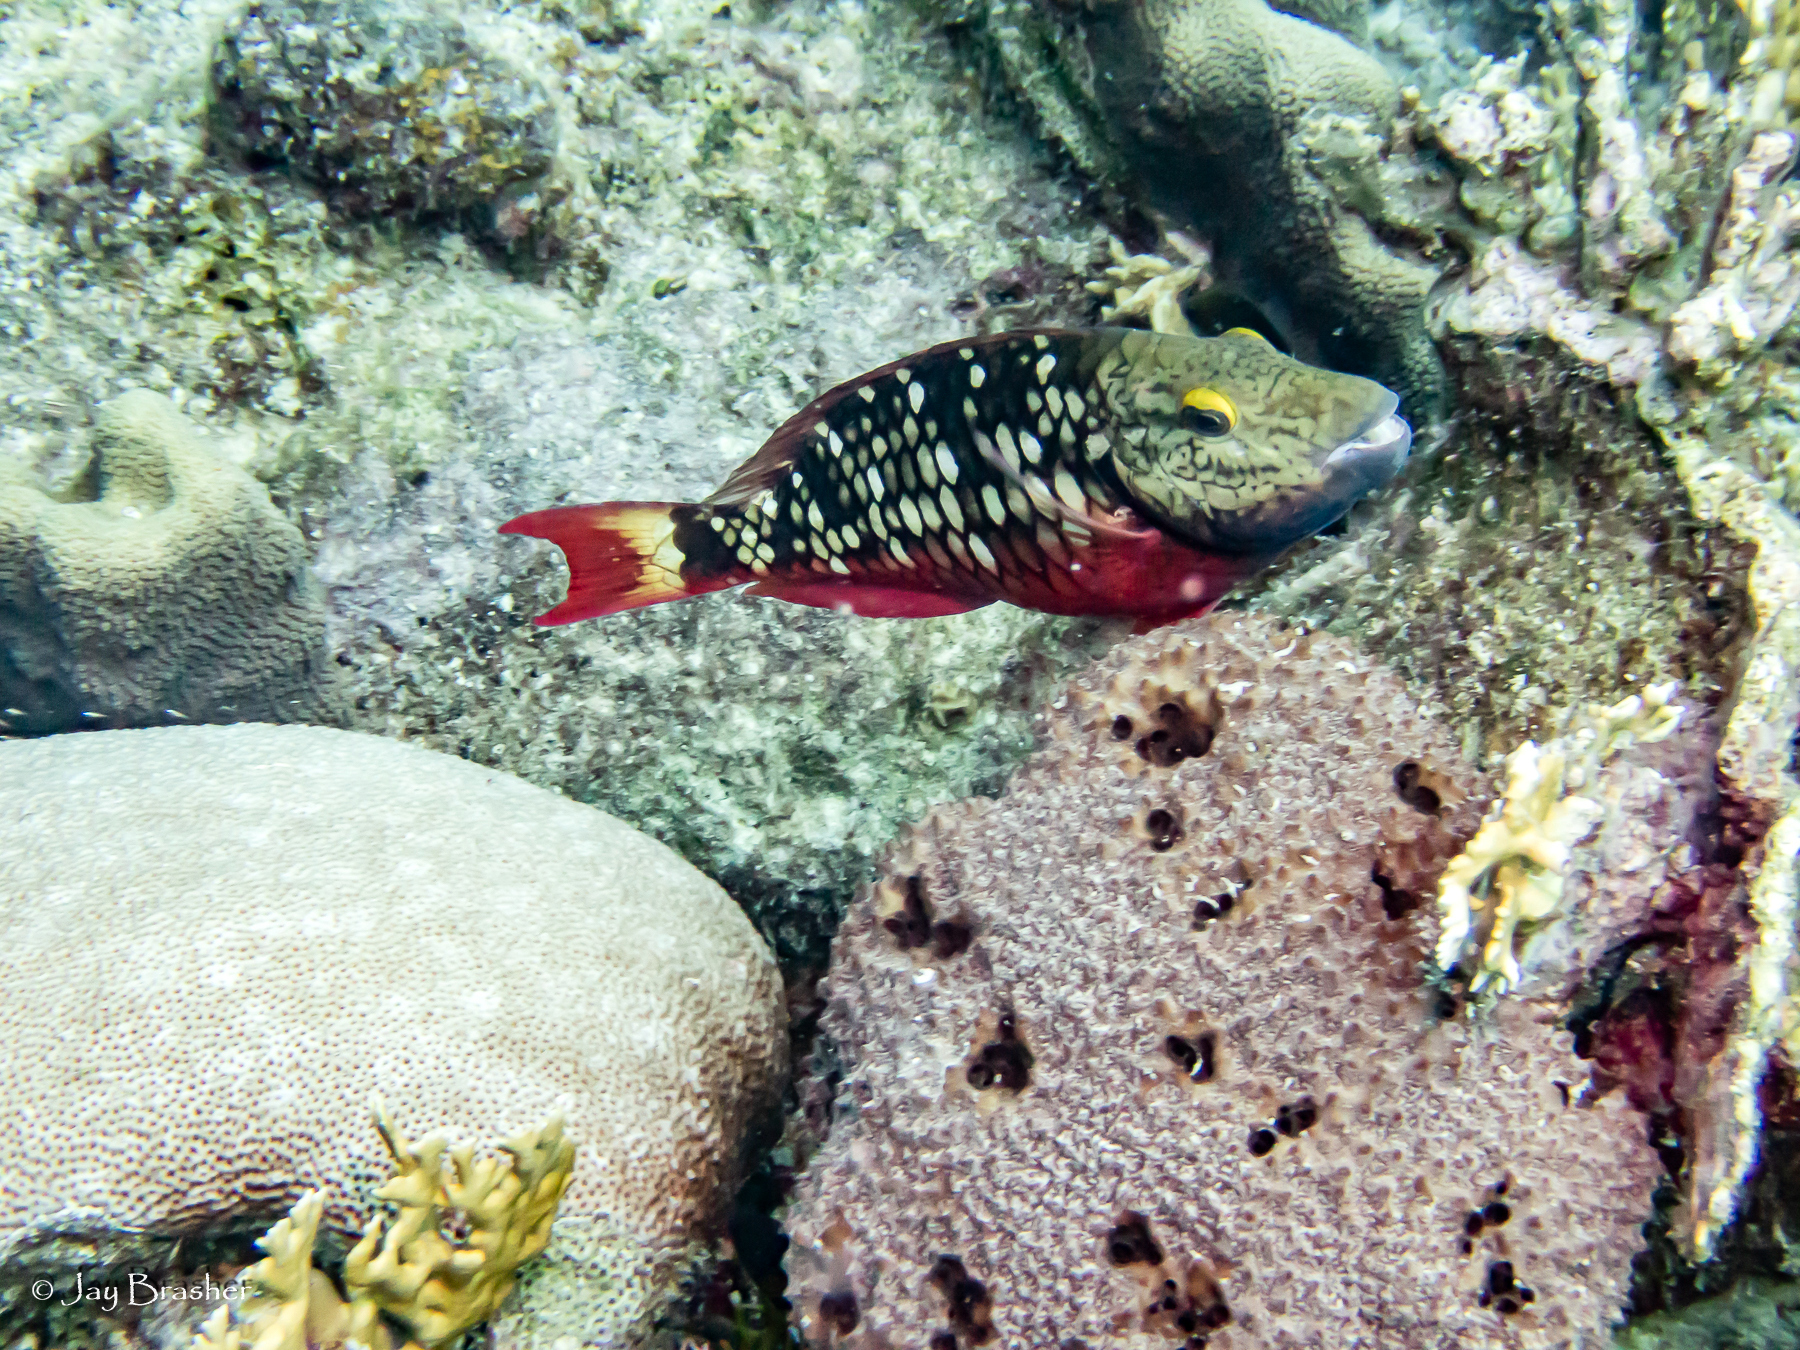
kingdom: Animalia
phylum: Cnidaria
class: Anthozoa
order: Scleractinia
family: Rhizangiidae
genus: Siderastrea
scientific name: Siderastrea siderea
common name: Massive starlet coral
